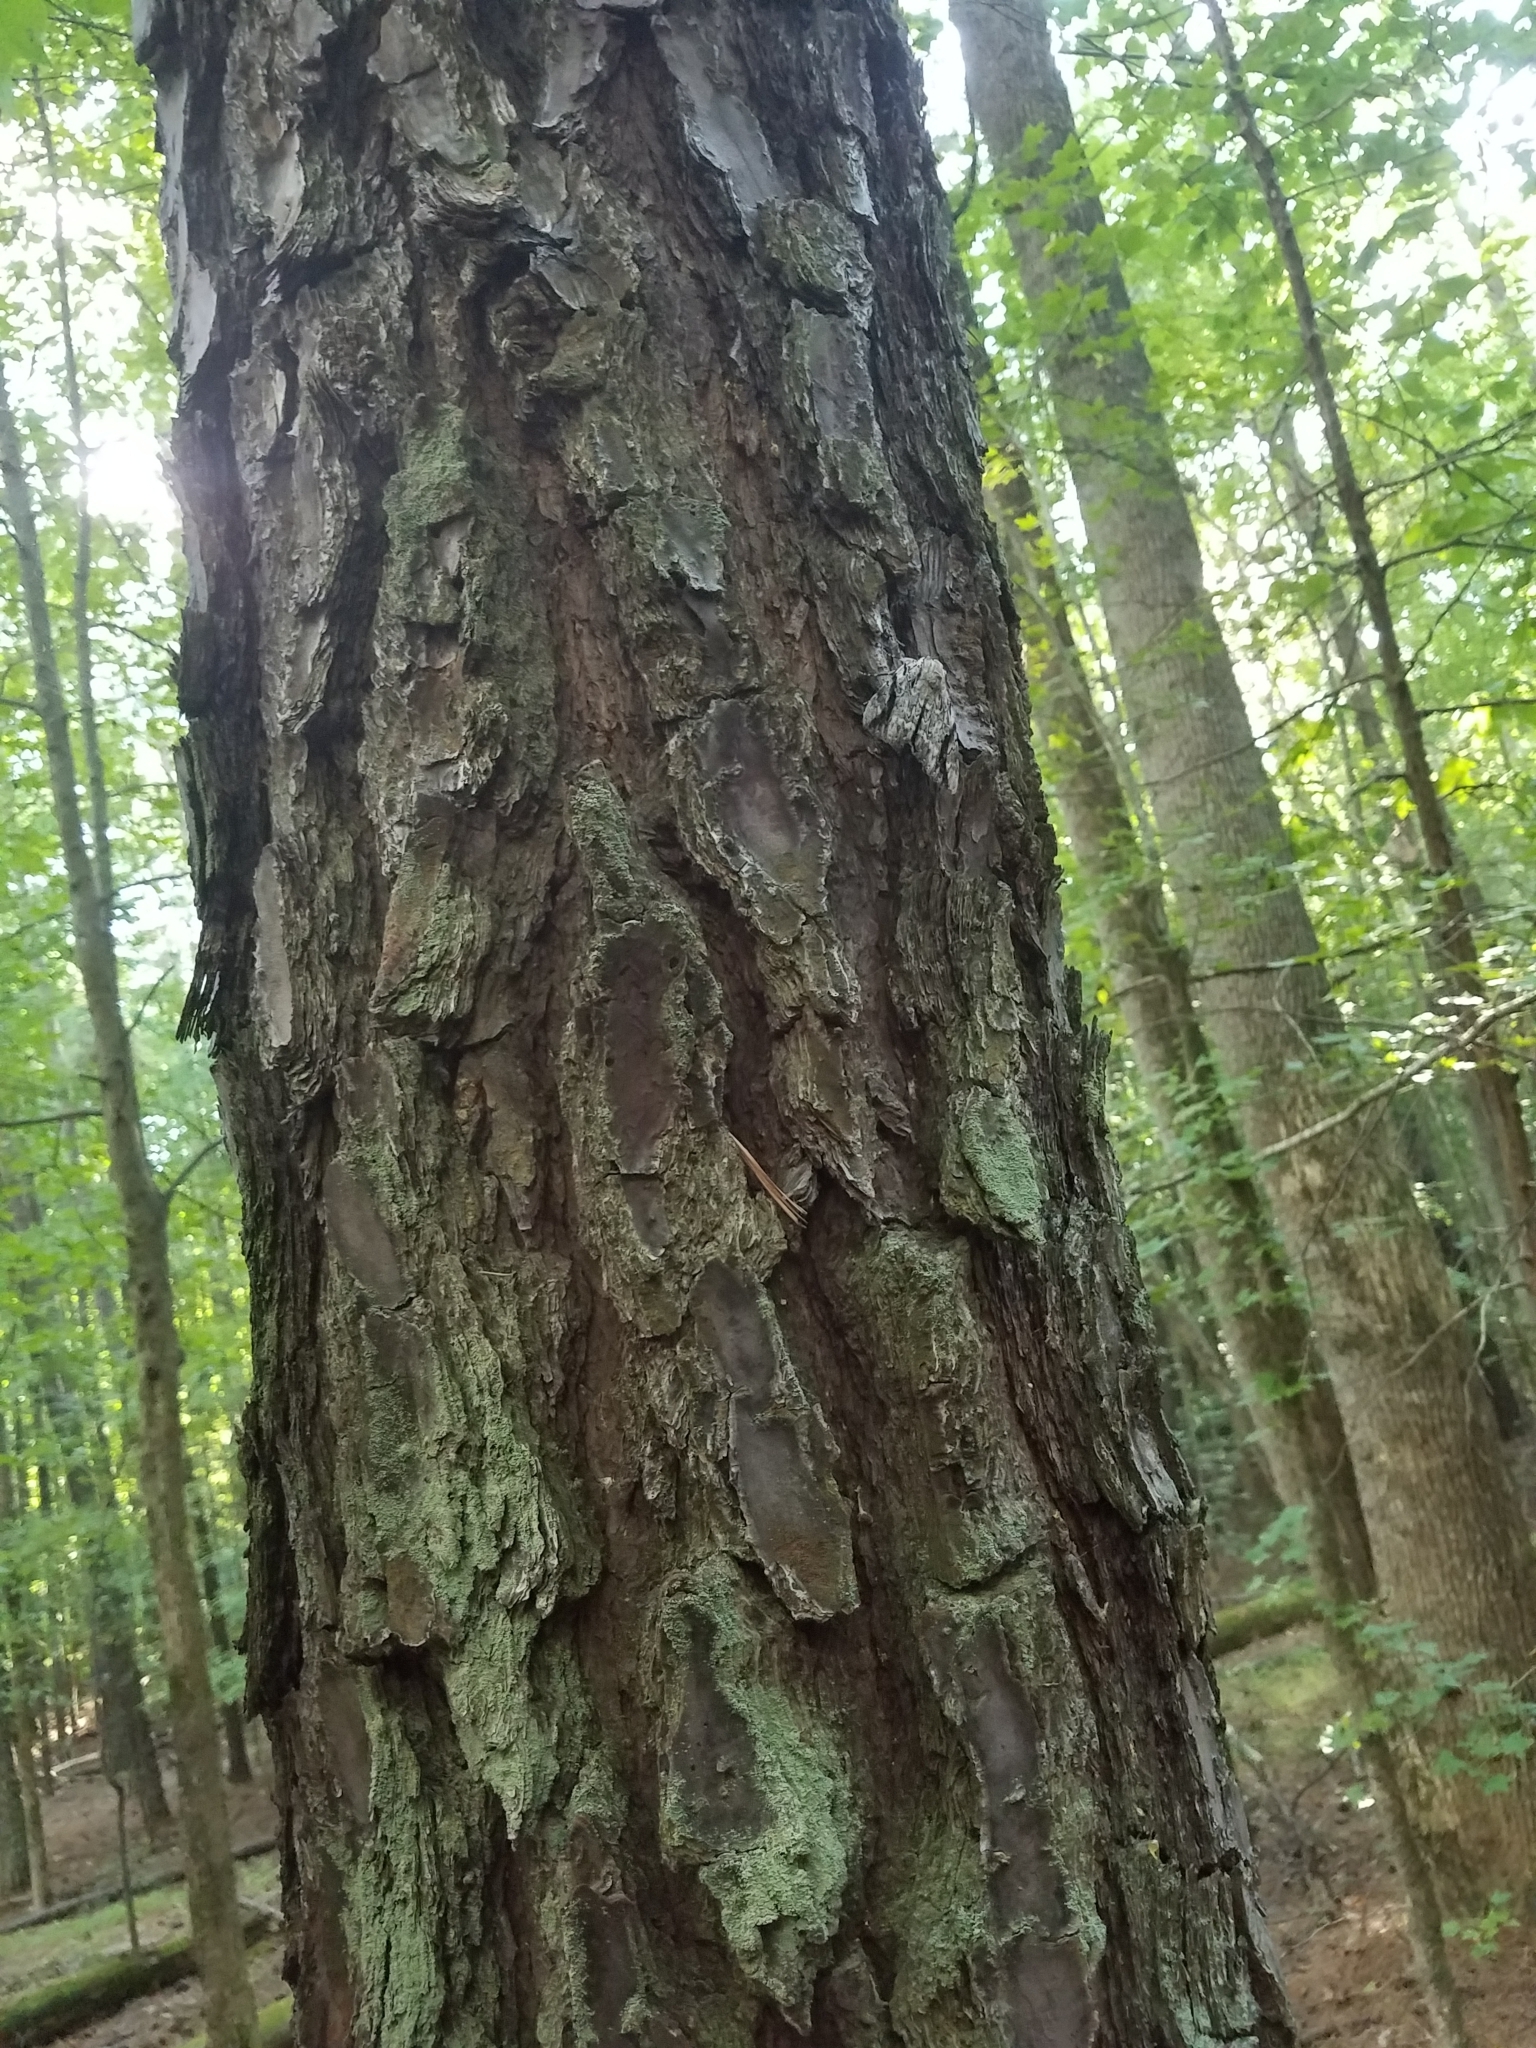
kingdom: Animalia
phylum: Arthropoda
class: Insecta
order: Lepidoptera
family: Erebidae
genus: Catocala
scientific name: Catocala maestosa
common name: Sad underwing
